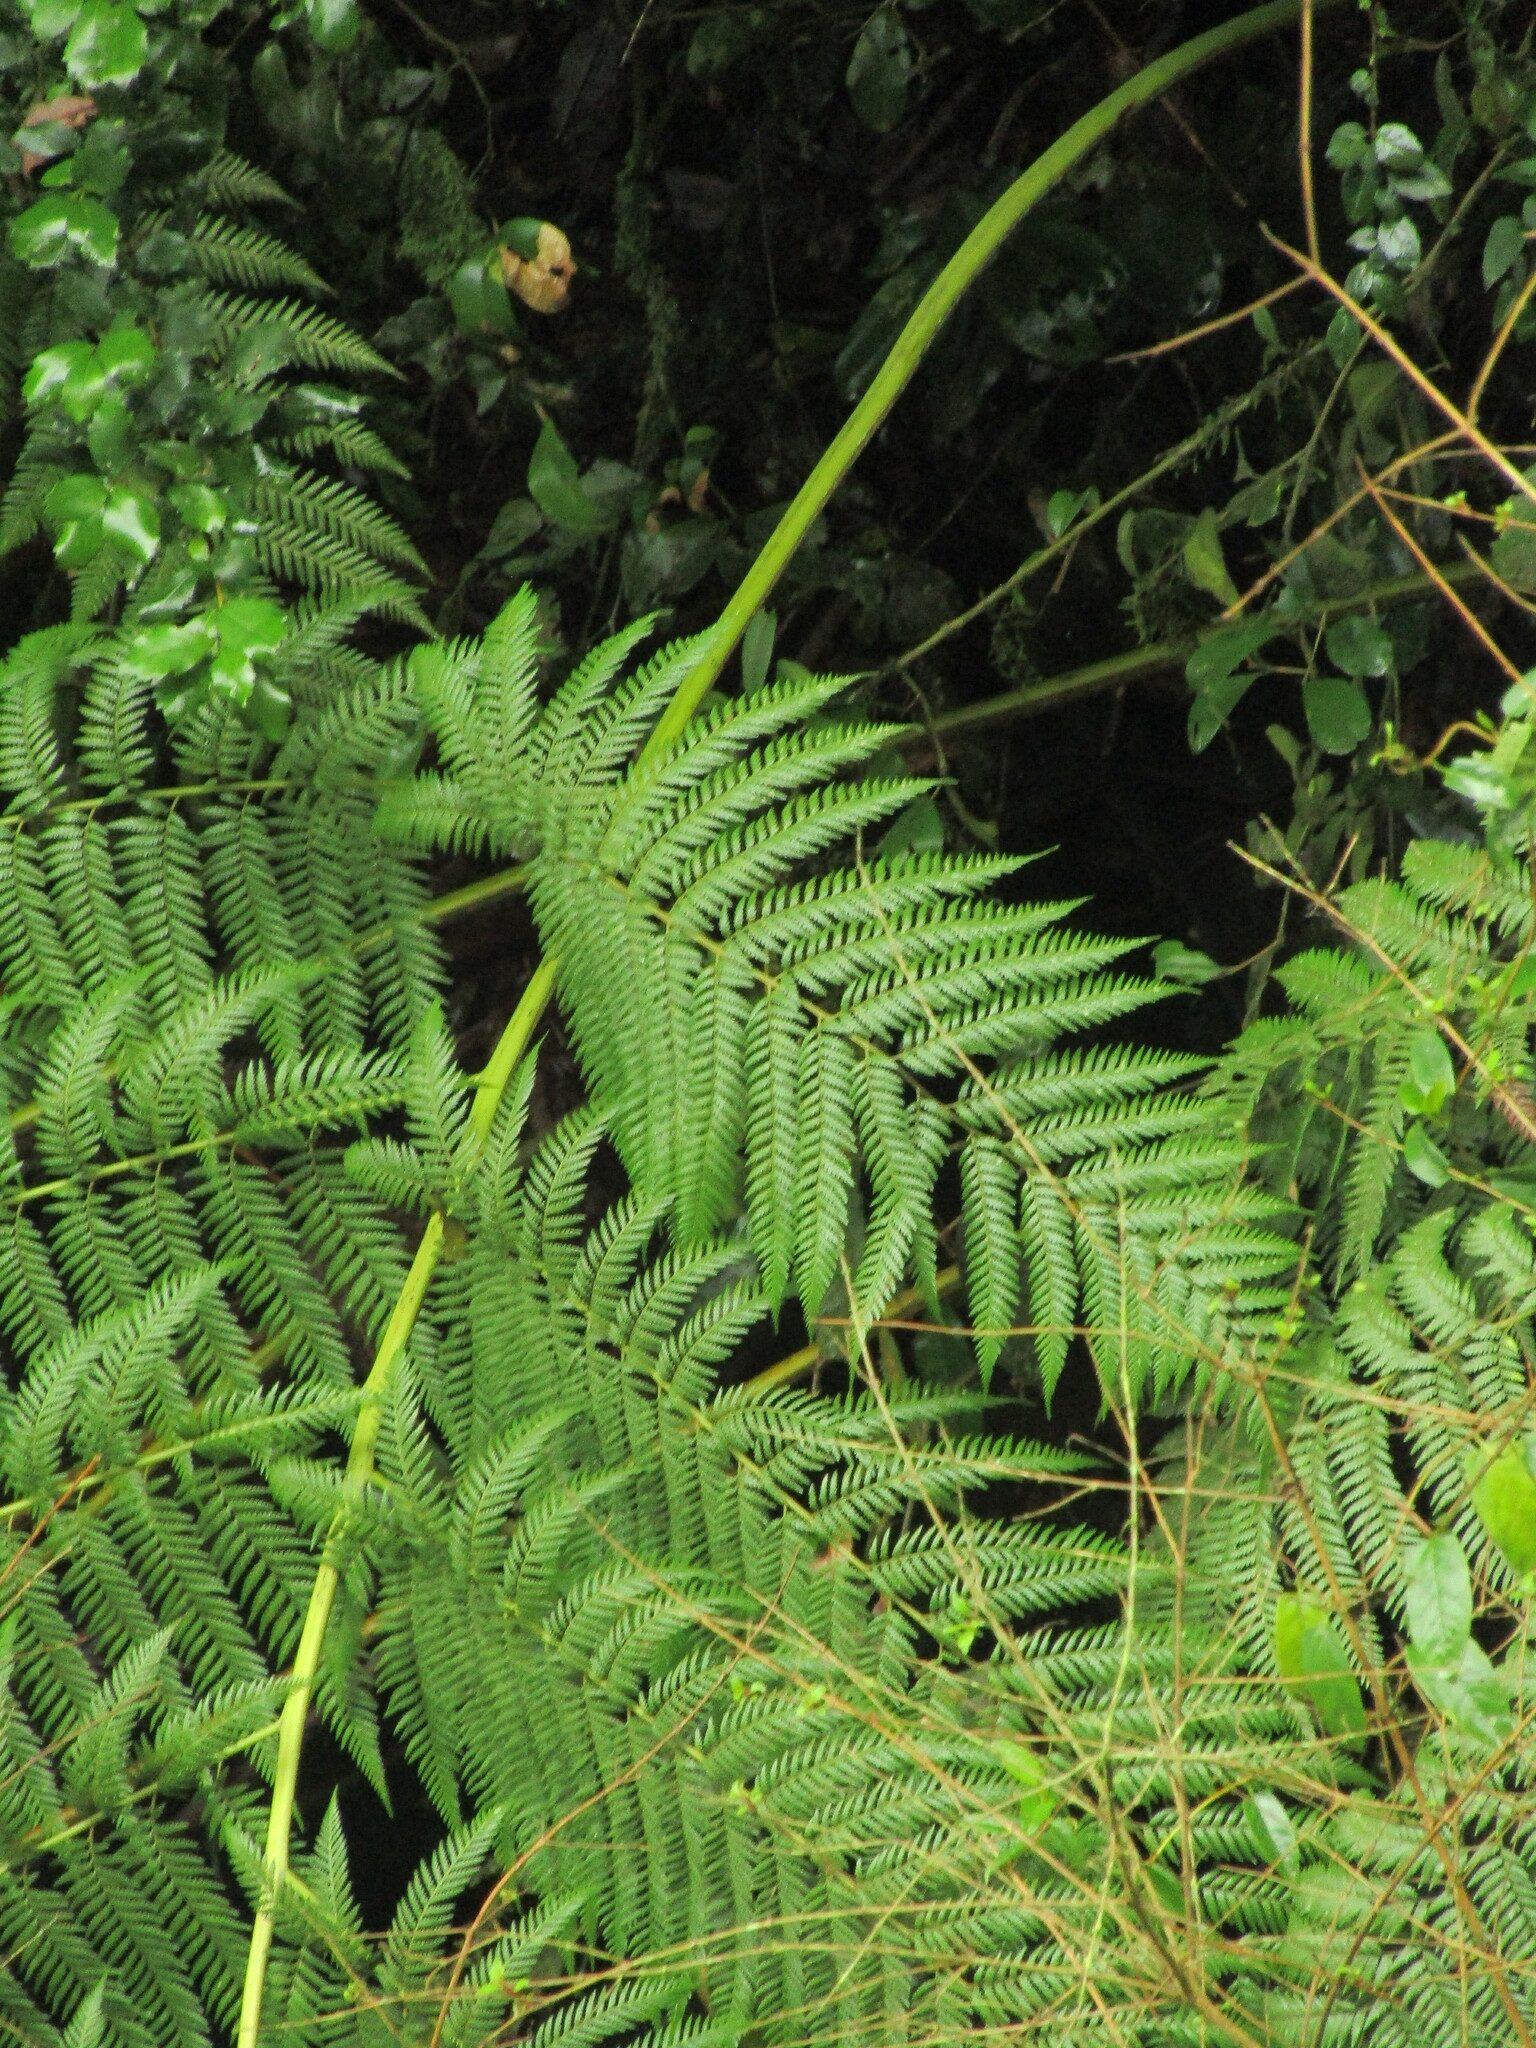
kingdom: Plantae
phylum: Tracheophyta
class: Polypodiopsida
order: Cyatheales
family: Dicksoniaceae
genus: Lophosoria
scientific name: Lophosoria quadripinnata
